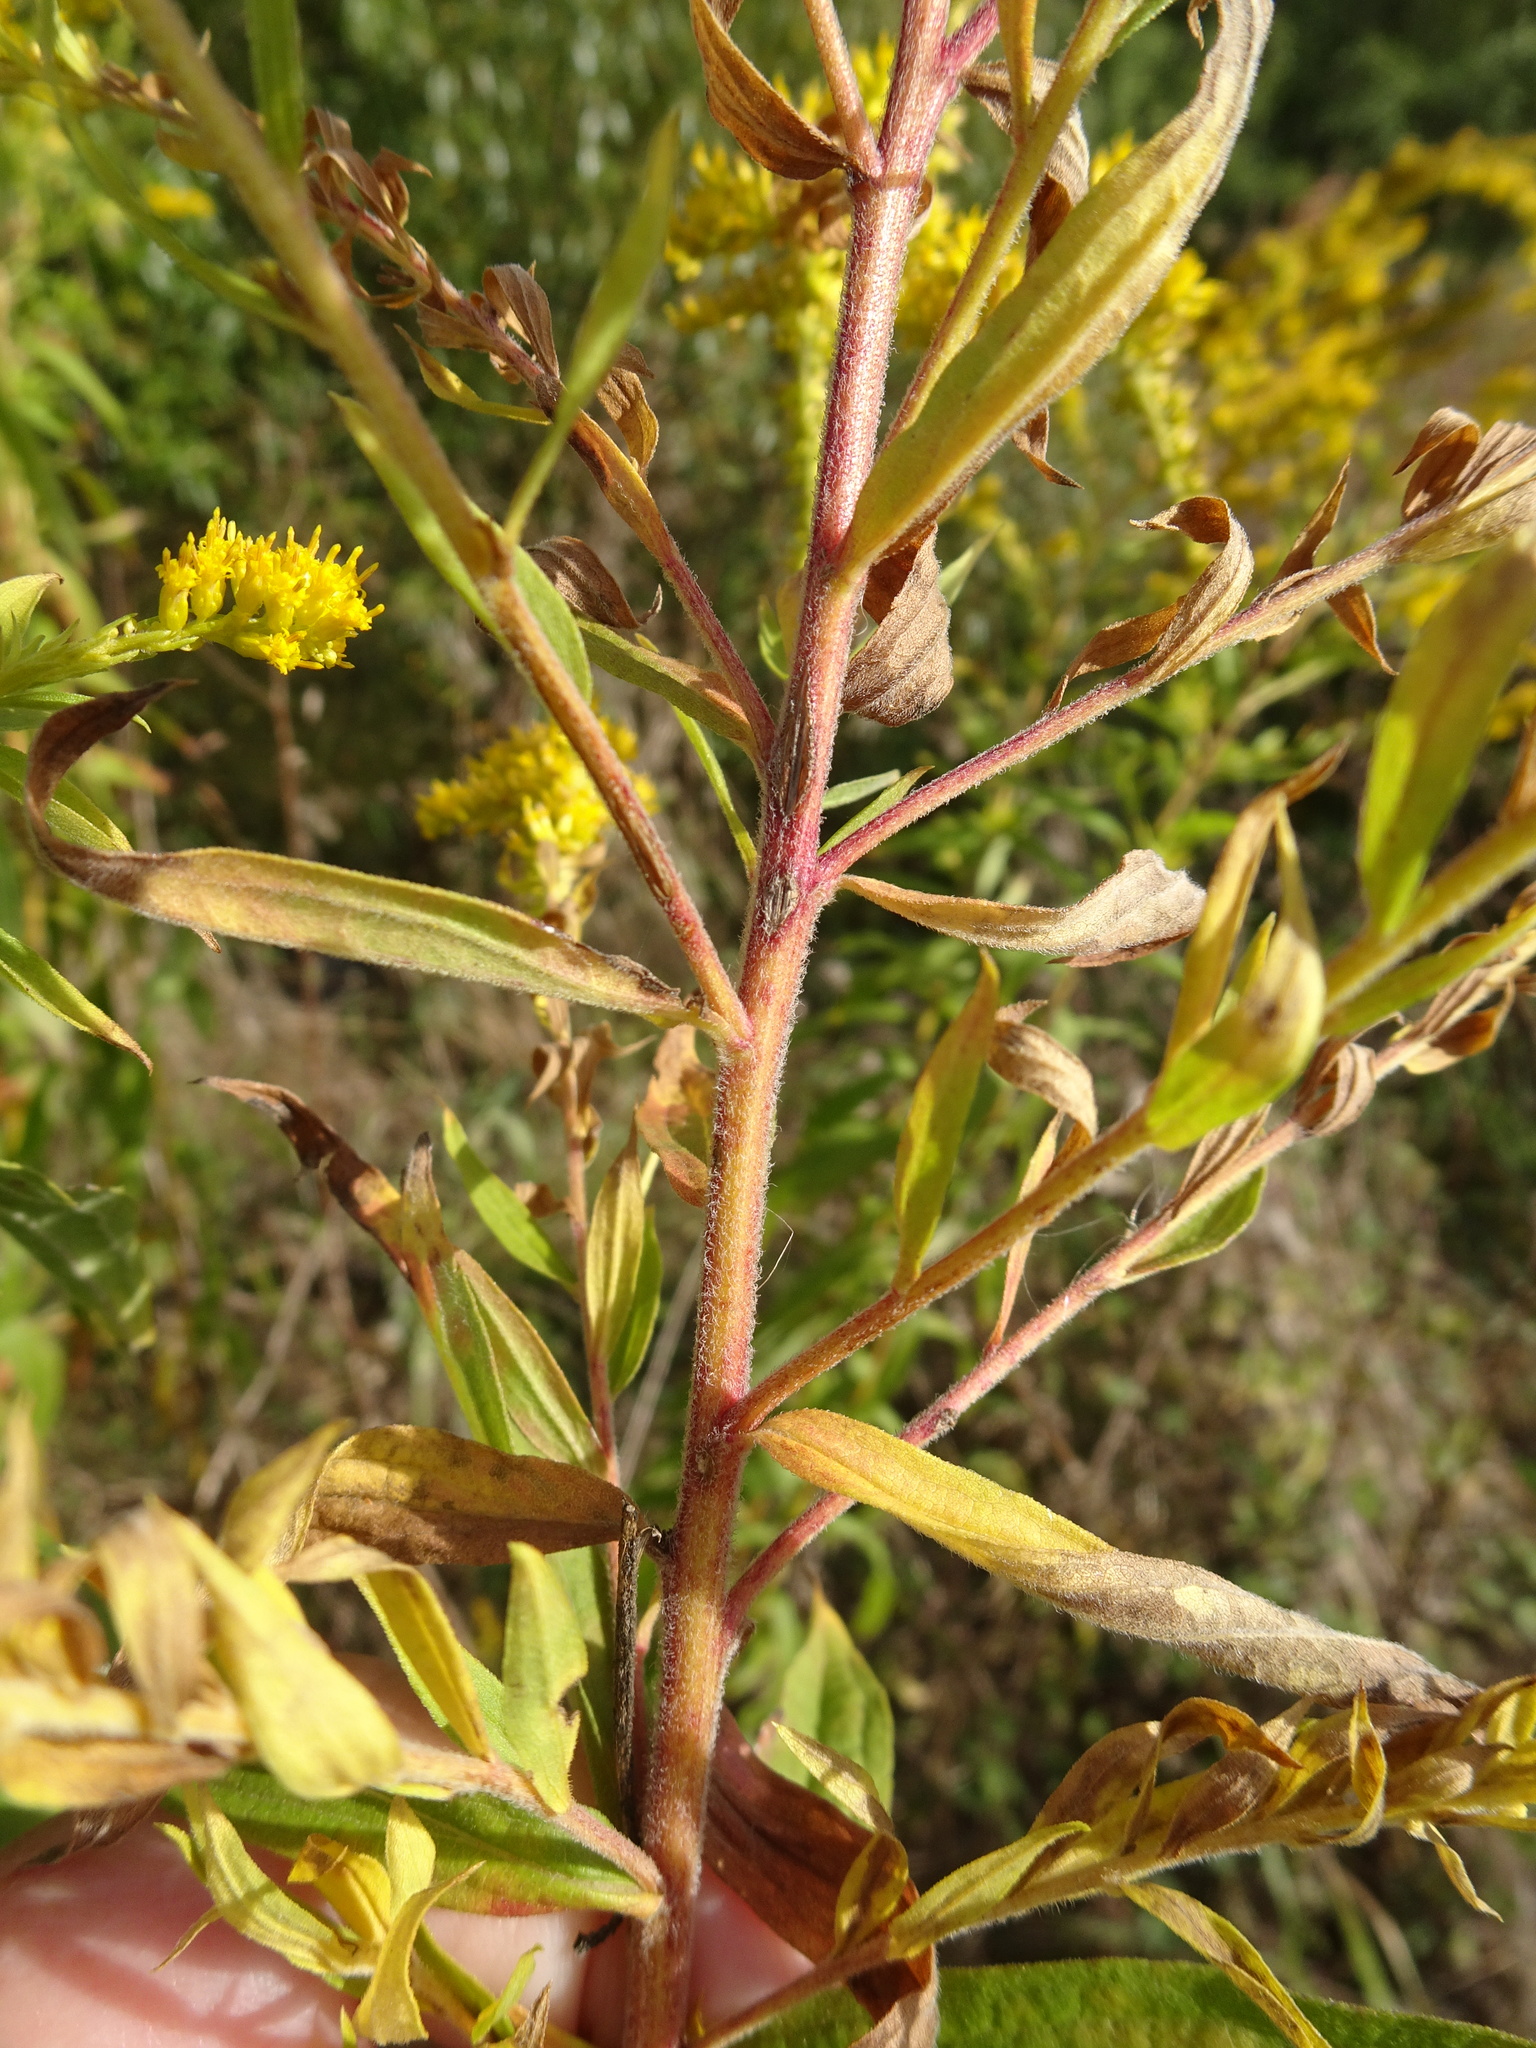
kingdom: Plantae
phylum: Tracheophyta
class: Magnoliopsida
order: Asterales
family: Asteraceae
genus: Solidago
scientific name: Solidago canadensis
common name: Canada goldenrod
